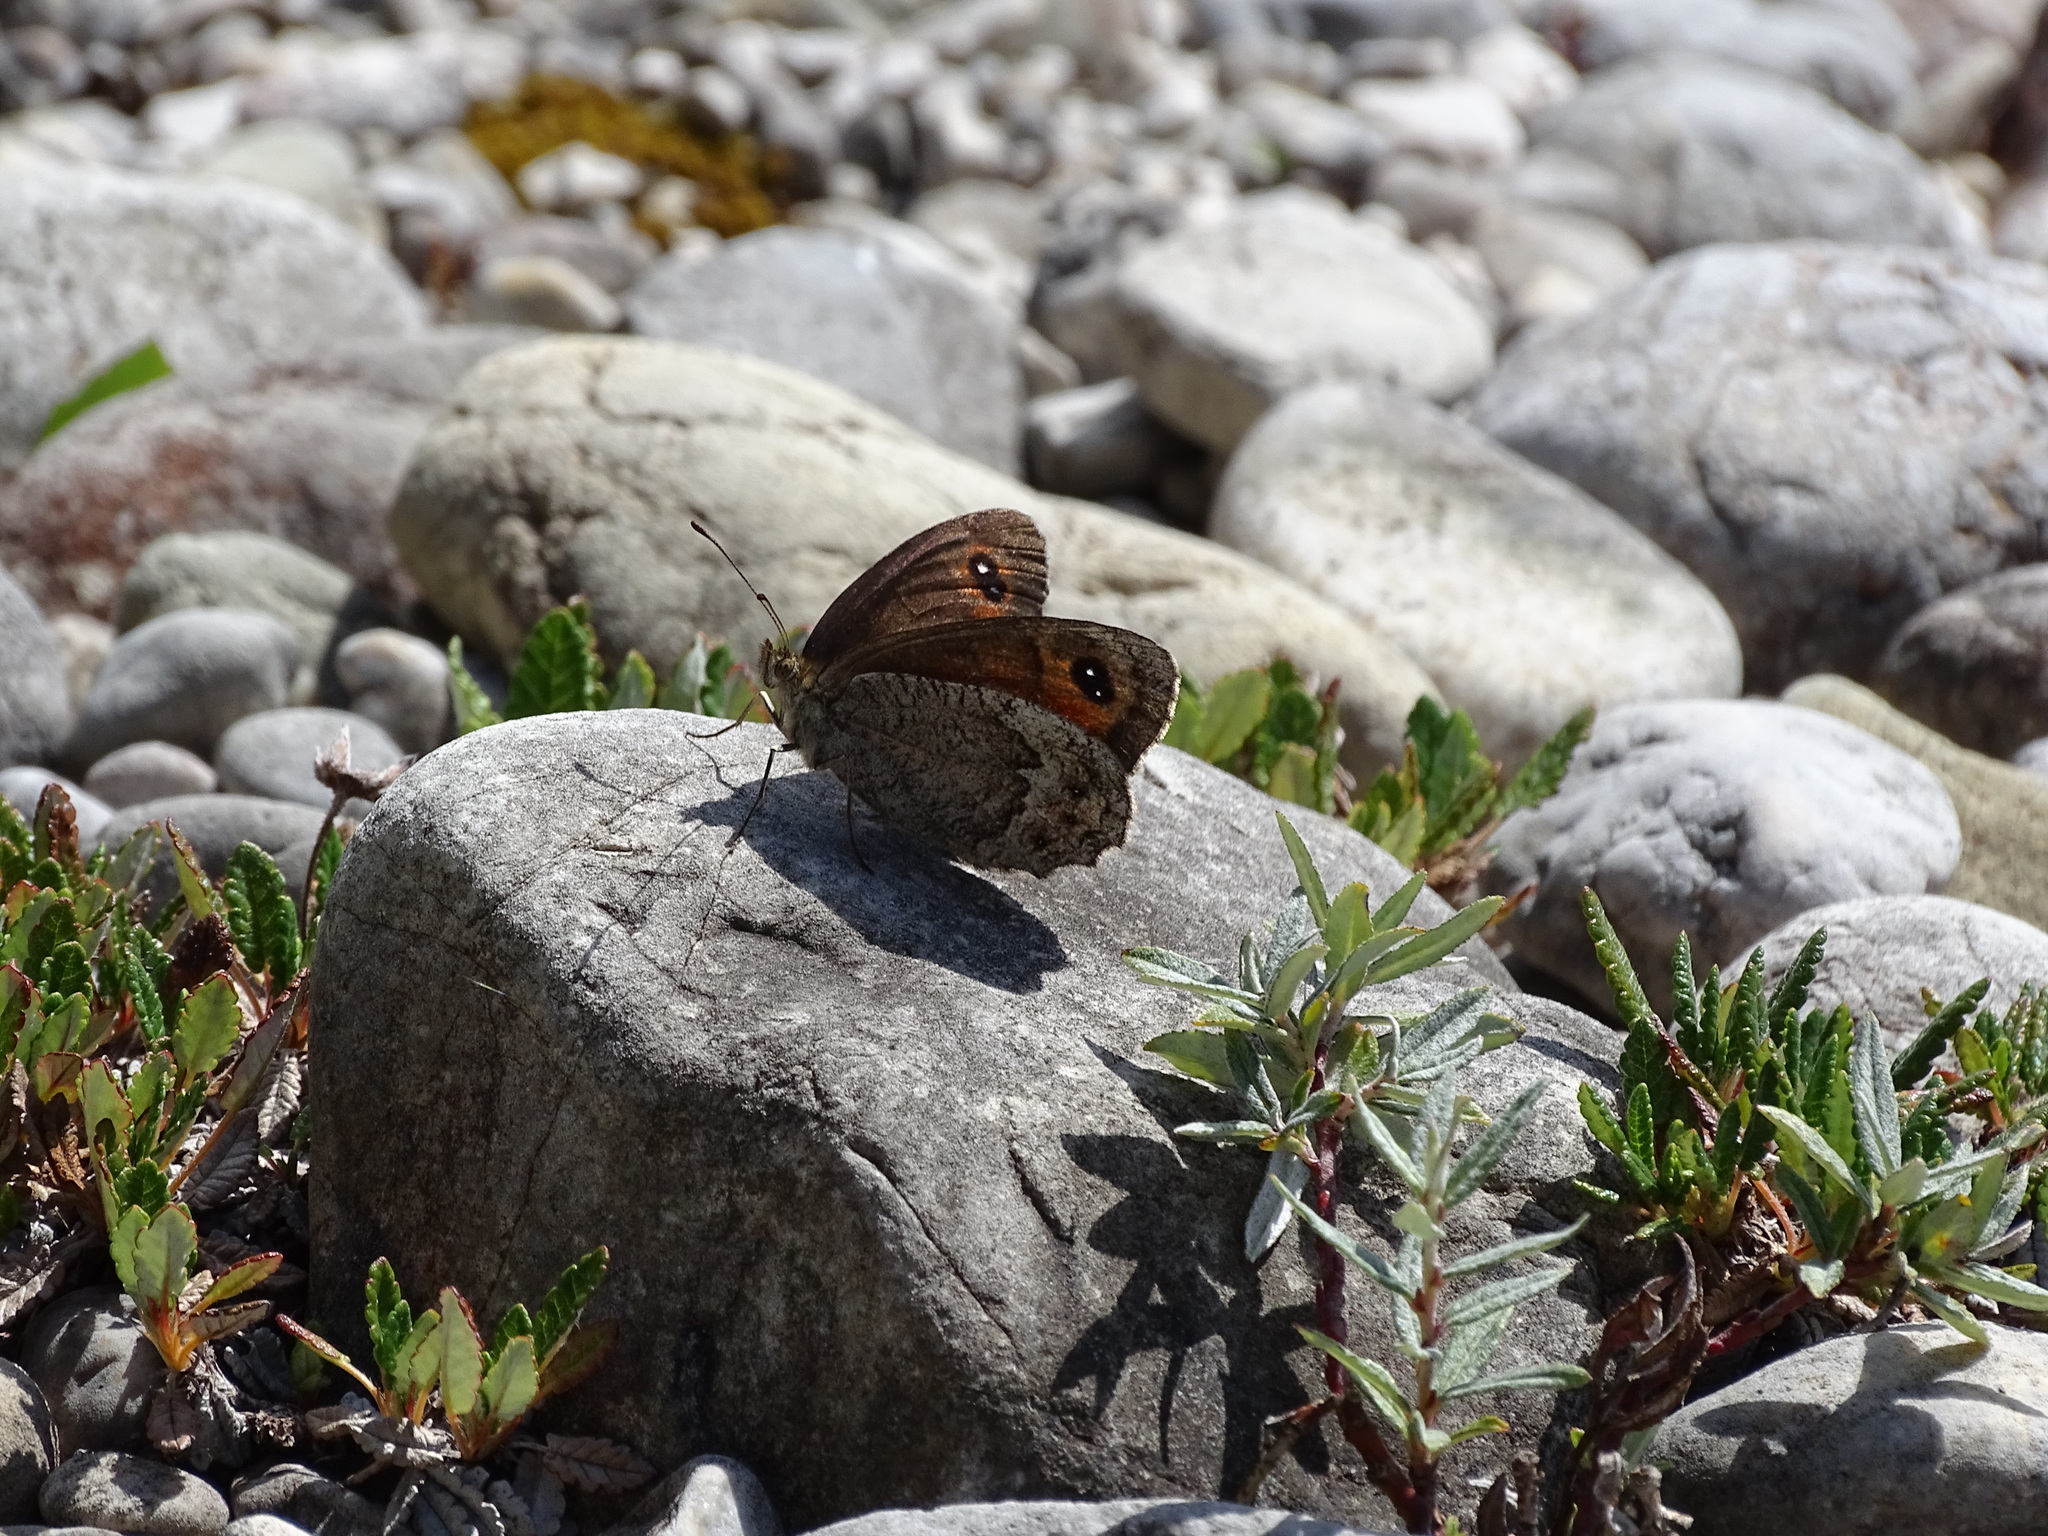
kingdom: Animalia
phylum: Arthropoda
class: Insecta
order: Lepidoptera
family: Nymphalidae
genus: Callerebia
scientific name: Callerebia mani
